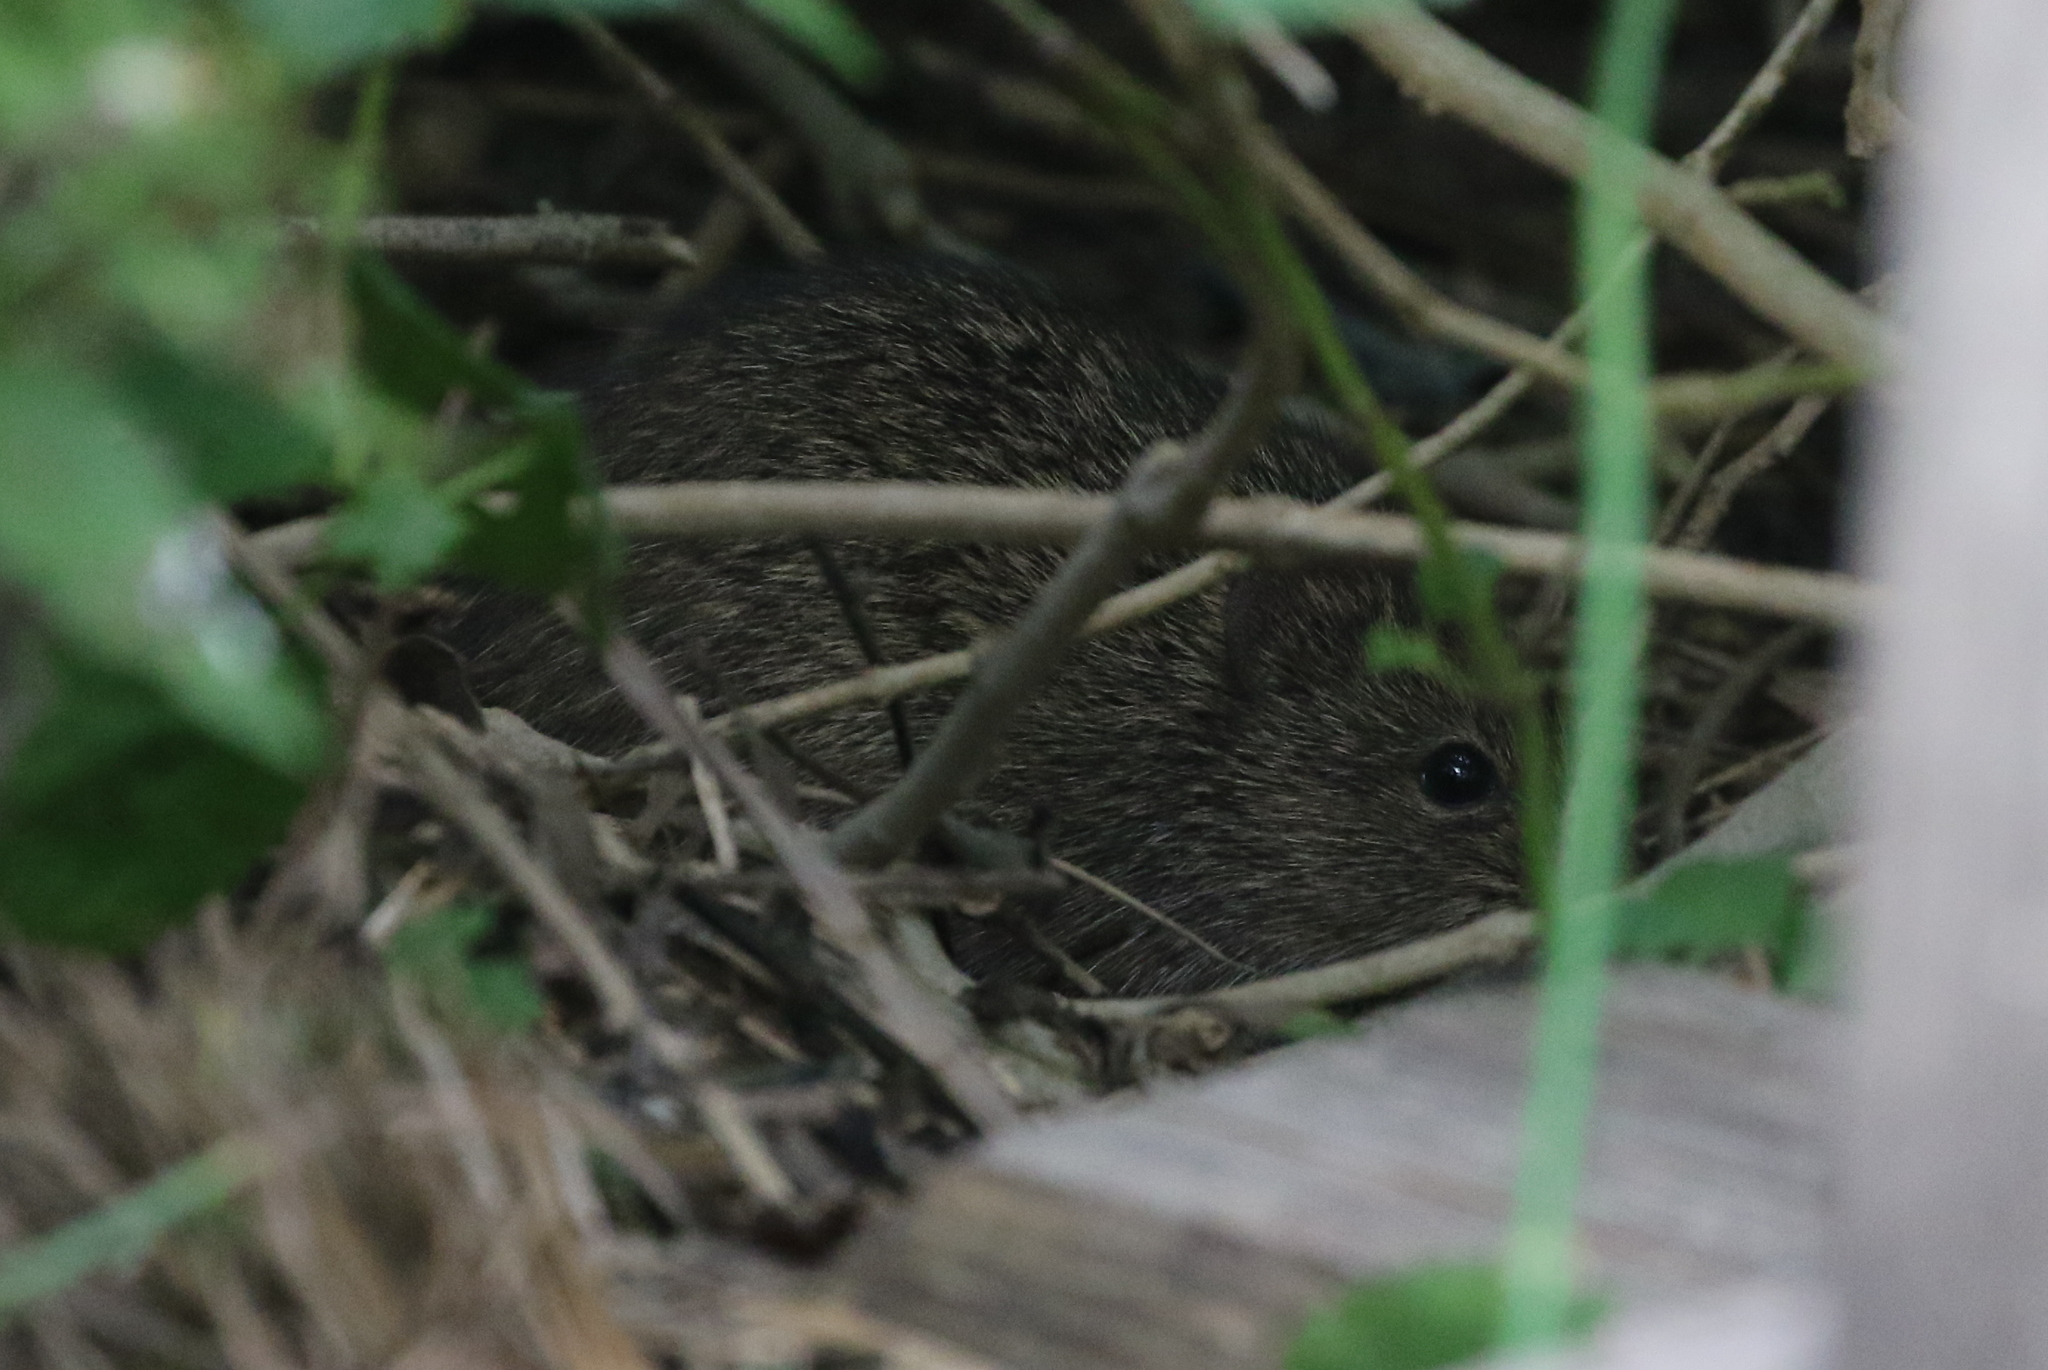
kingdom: Animalia
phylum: Chordata
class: Mammalia
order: Rodentia
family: Cricetidae
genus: Sigmodon
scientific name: Sigmodon hispidus
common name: Hispid cotton rat
